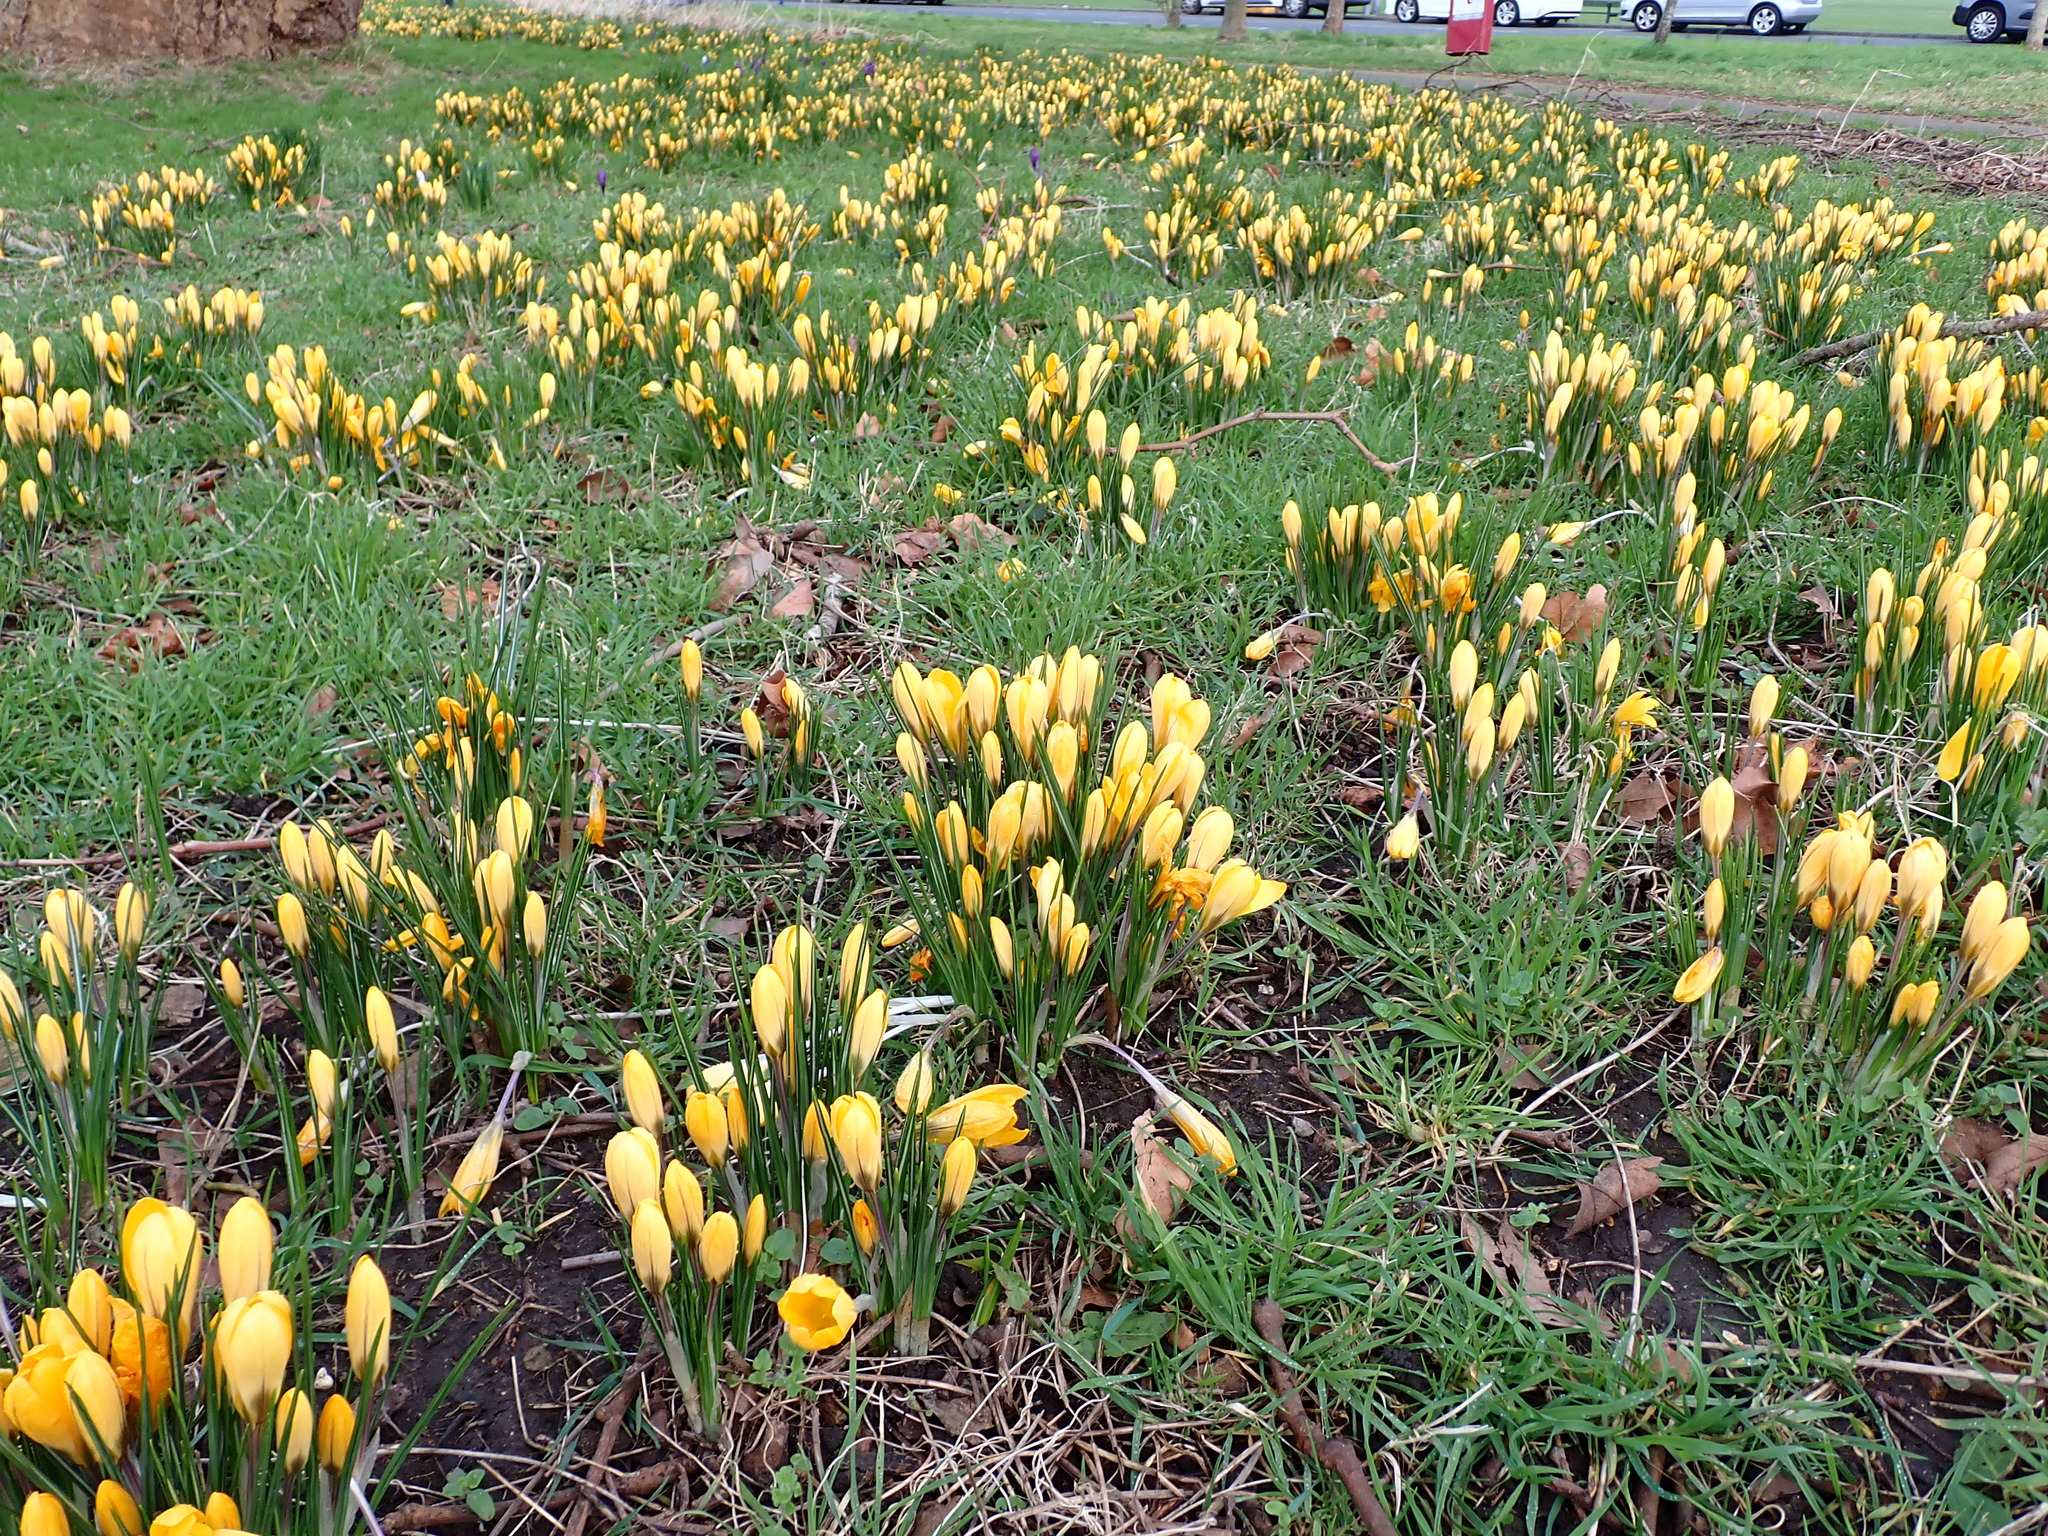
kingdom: Plantae
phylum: Tracheophyta
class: Liliopsida
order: Asparagales
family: Iridaceae
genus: Crocus
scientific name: Crocus luteus
